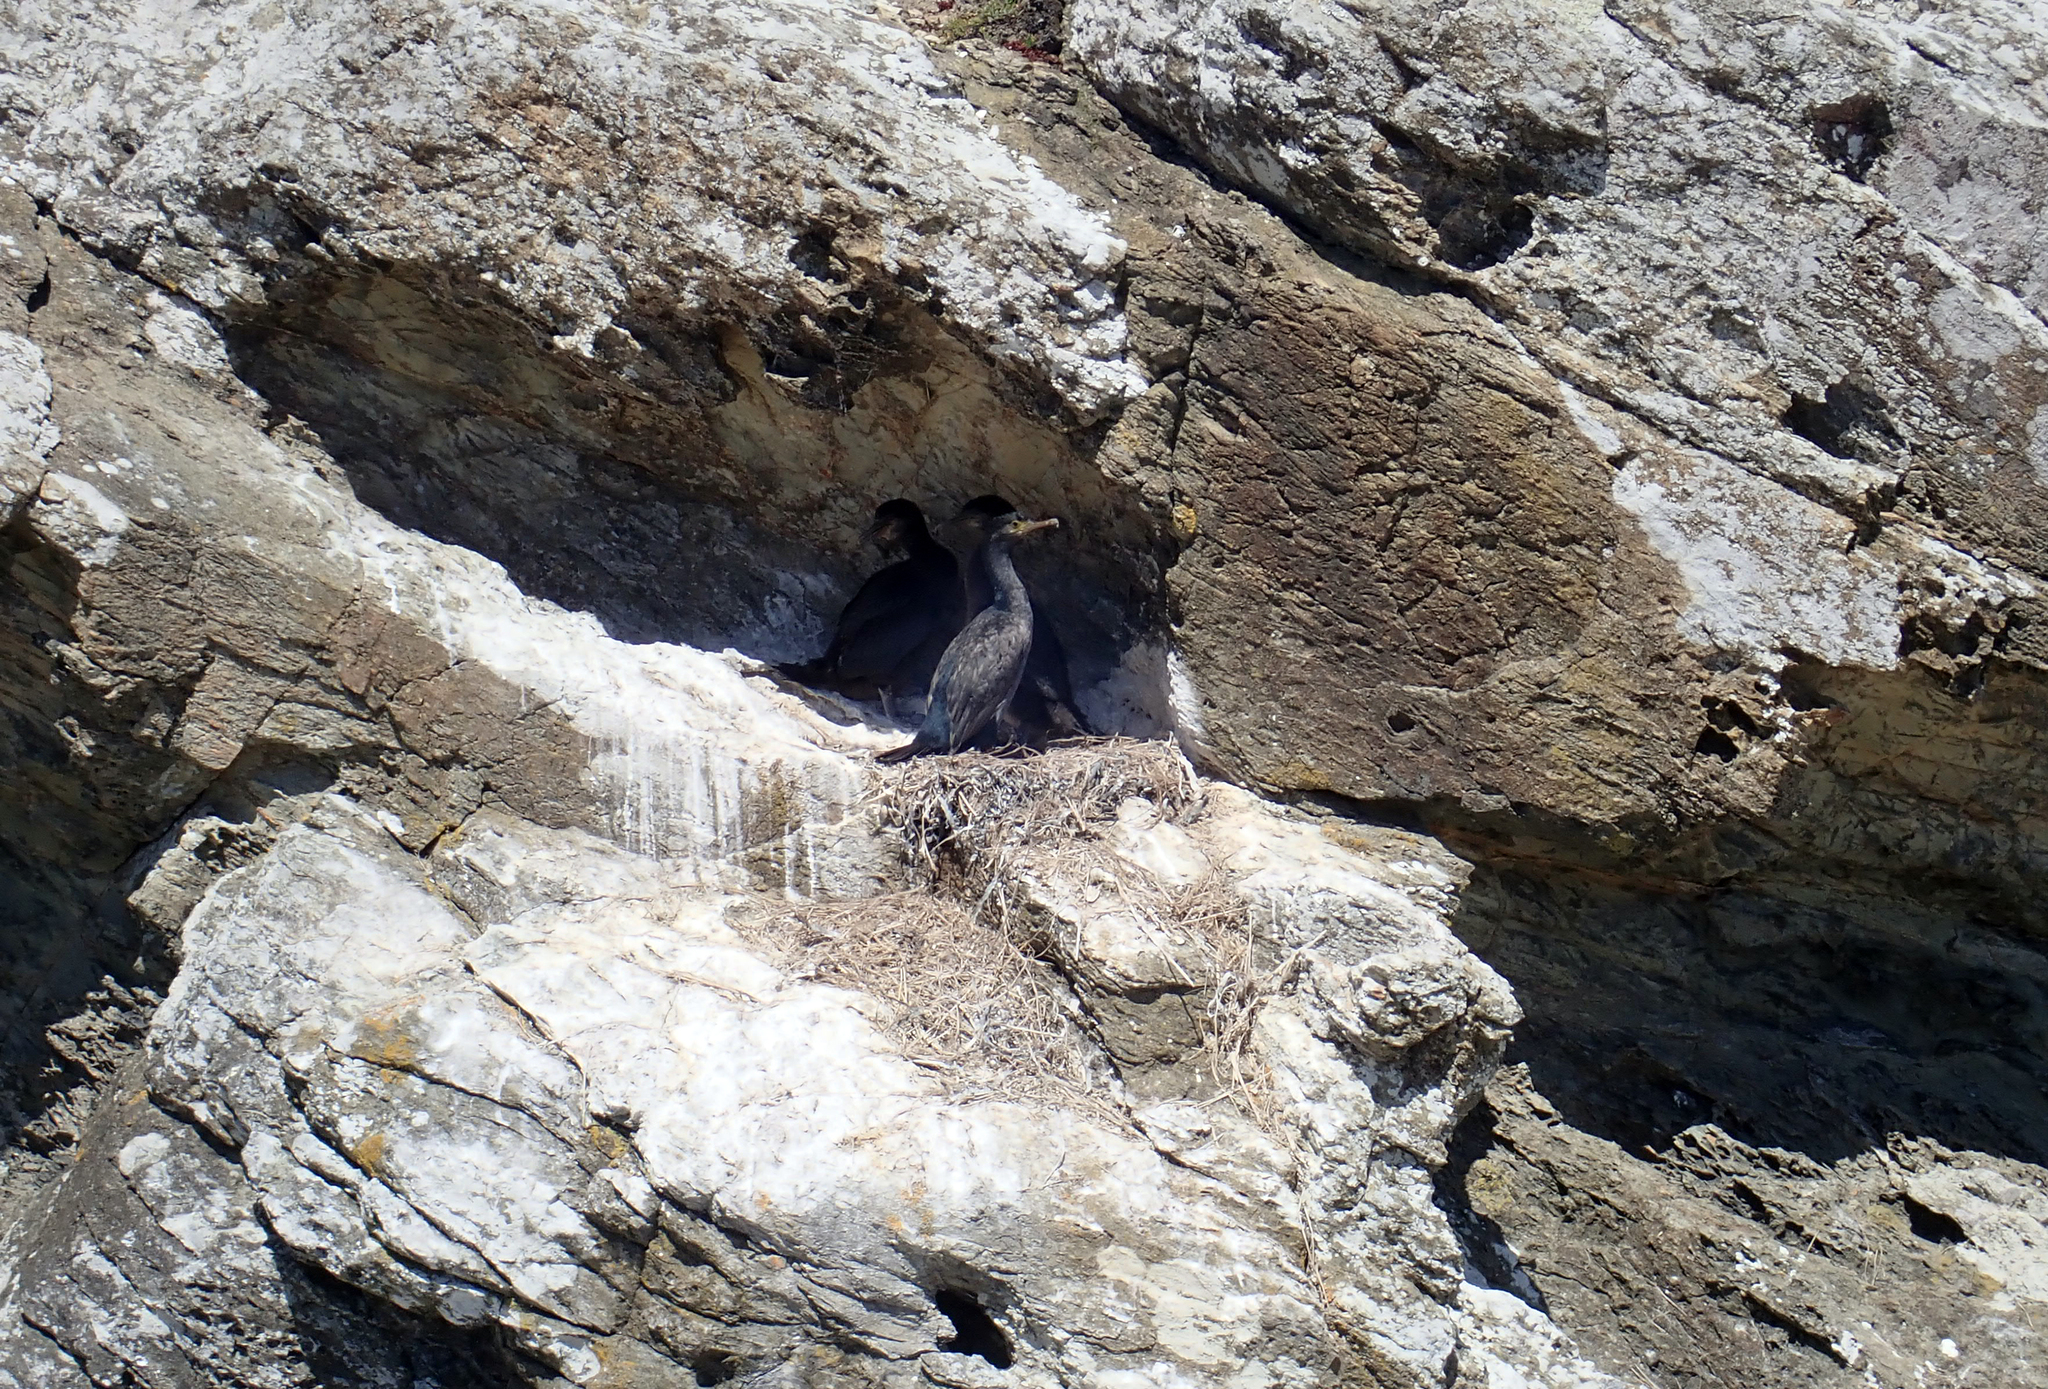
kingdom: Animalia
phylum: Chordata
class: Aves
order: Suliformes
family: Phalacrocoracidae
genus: Phalacrocorax
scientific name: Phalacrocorax featherstoni
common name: Pitt shag
